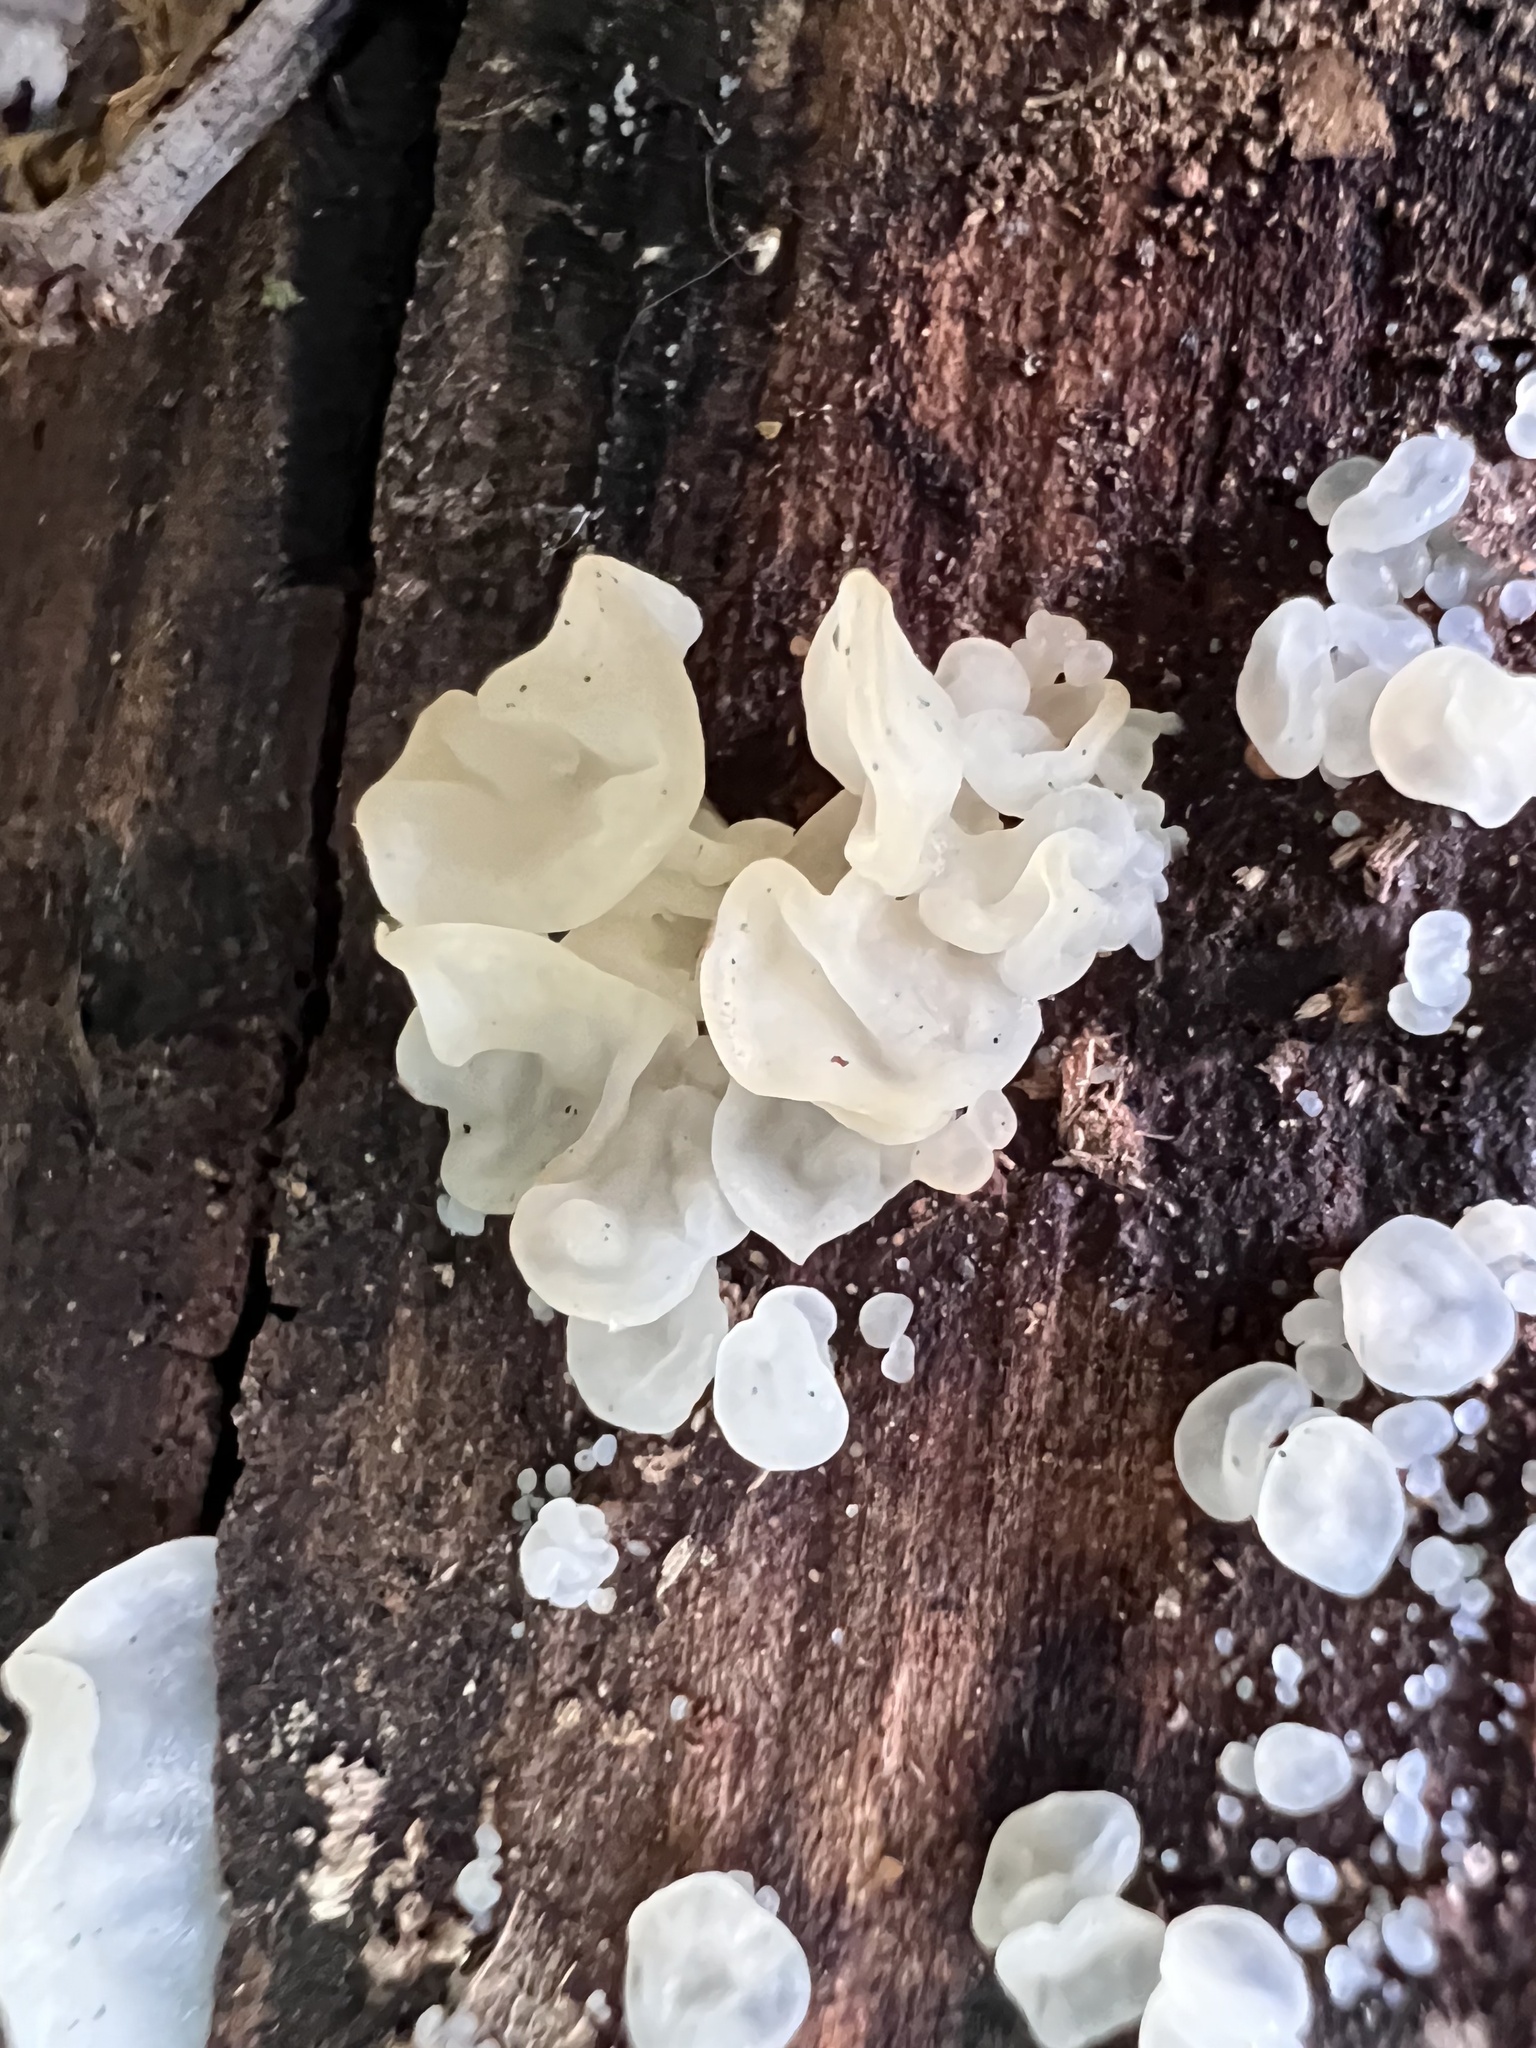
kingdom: Fungi
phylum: Basidiomycota
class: Agaricomycetes
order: Auriculariales
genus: Ductifera
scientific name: Ductifera pululahuana
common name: White jelly fungus
